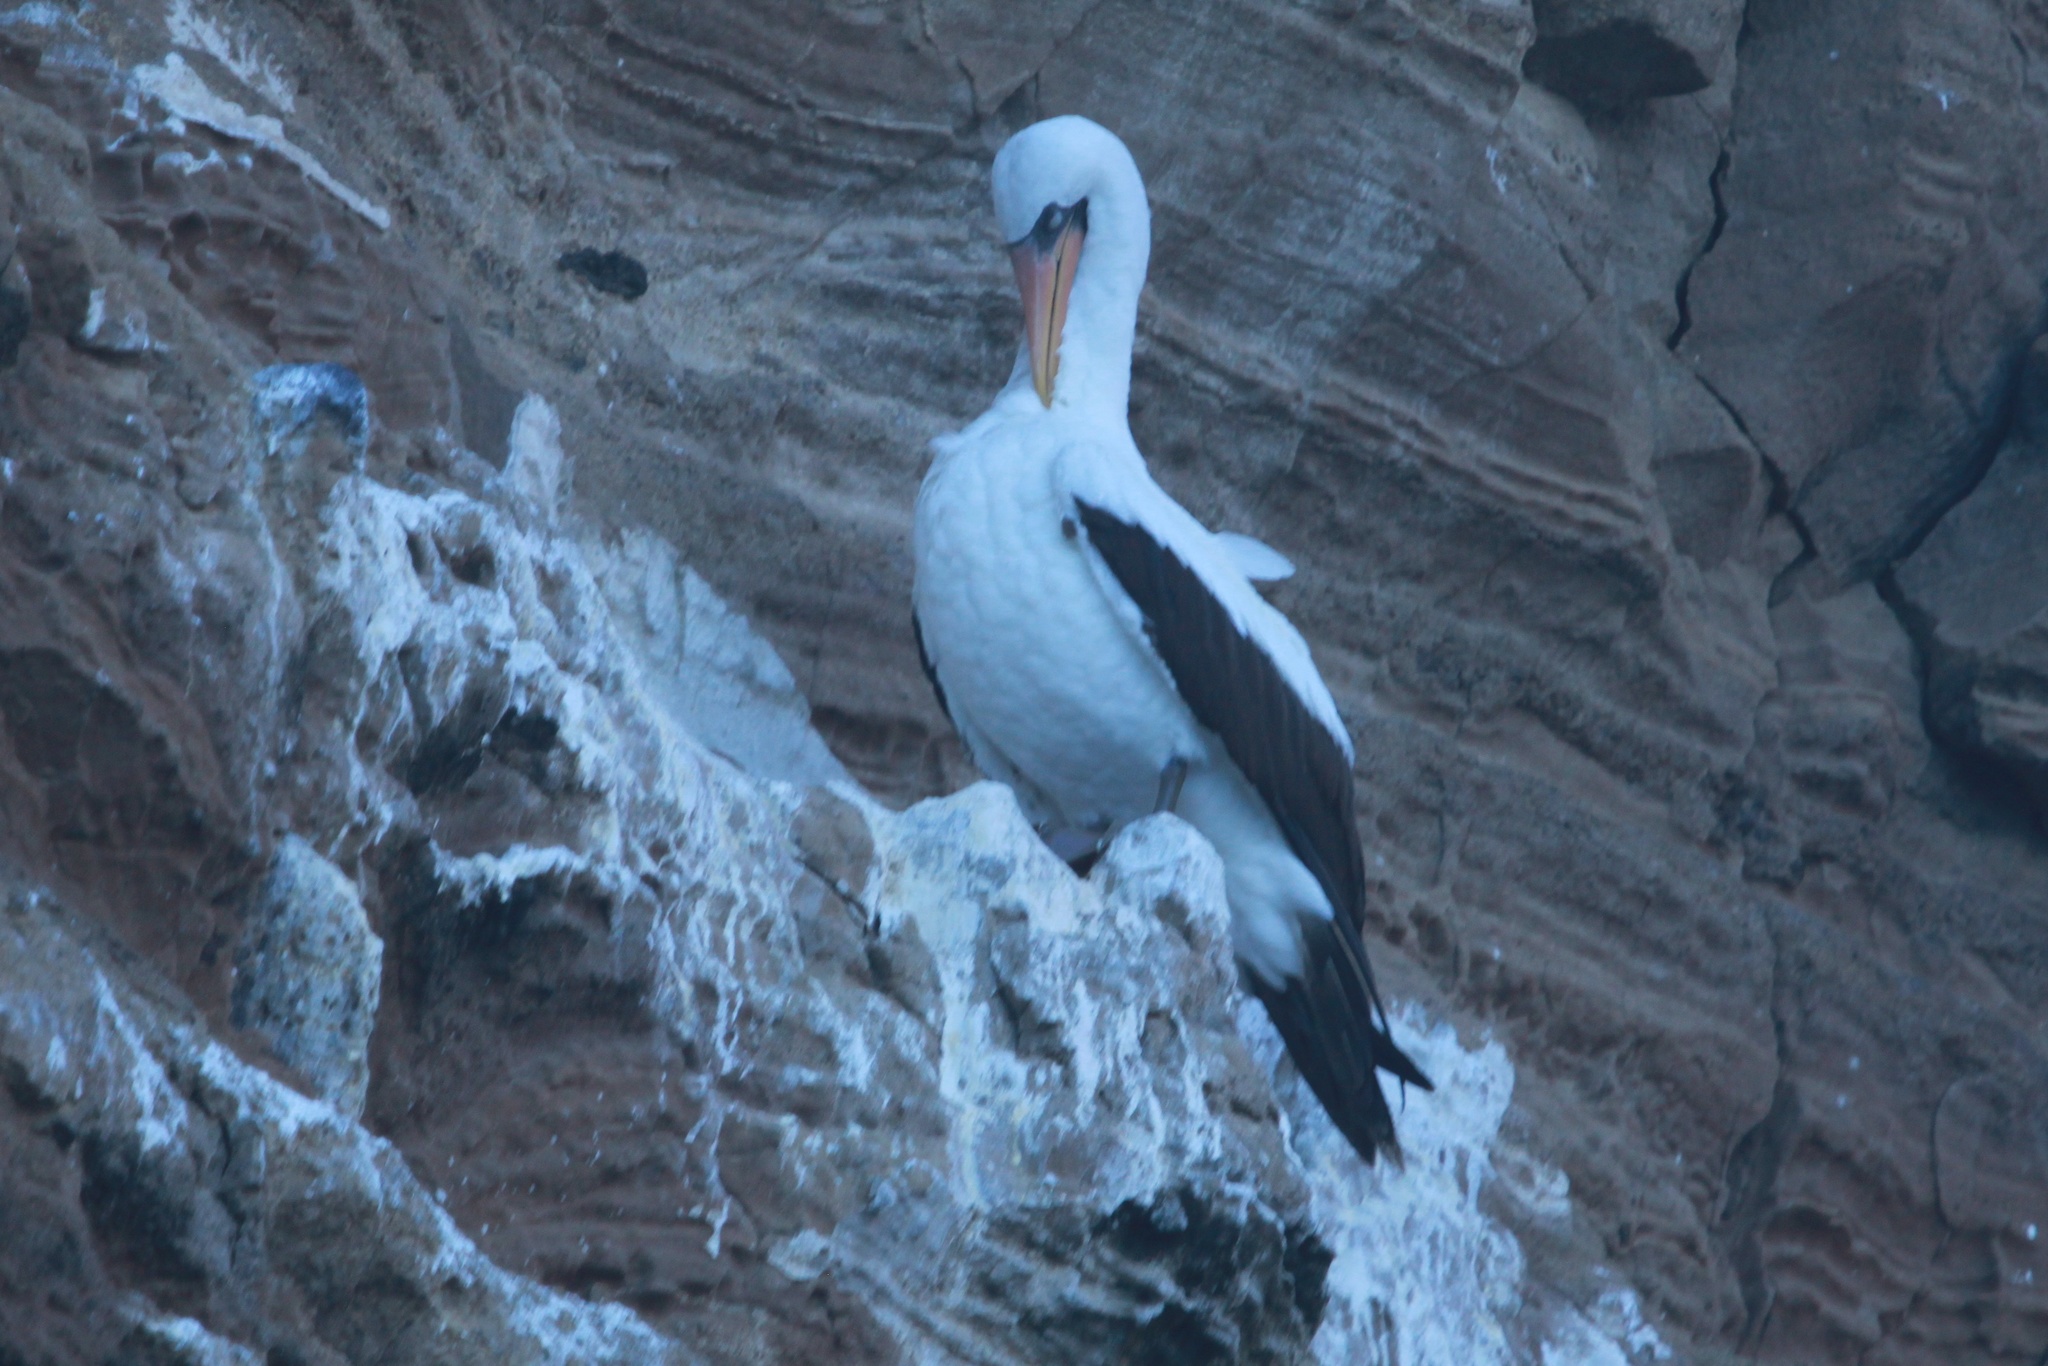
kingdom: Animalia
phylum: Chordata
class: Aves
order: Suliformes
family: Sulidae
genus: Sula
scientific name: Sula granti
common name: Nazca booby
